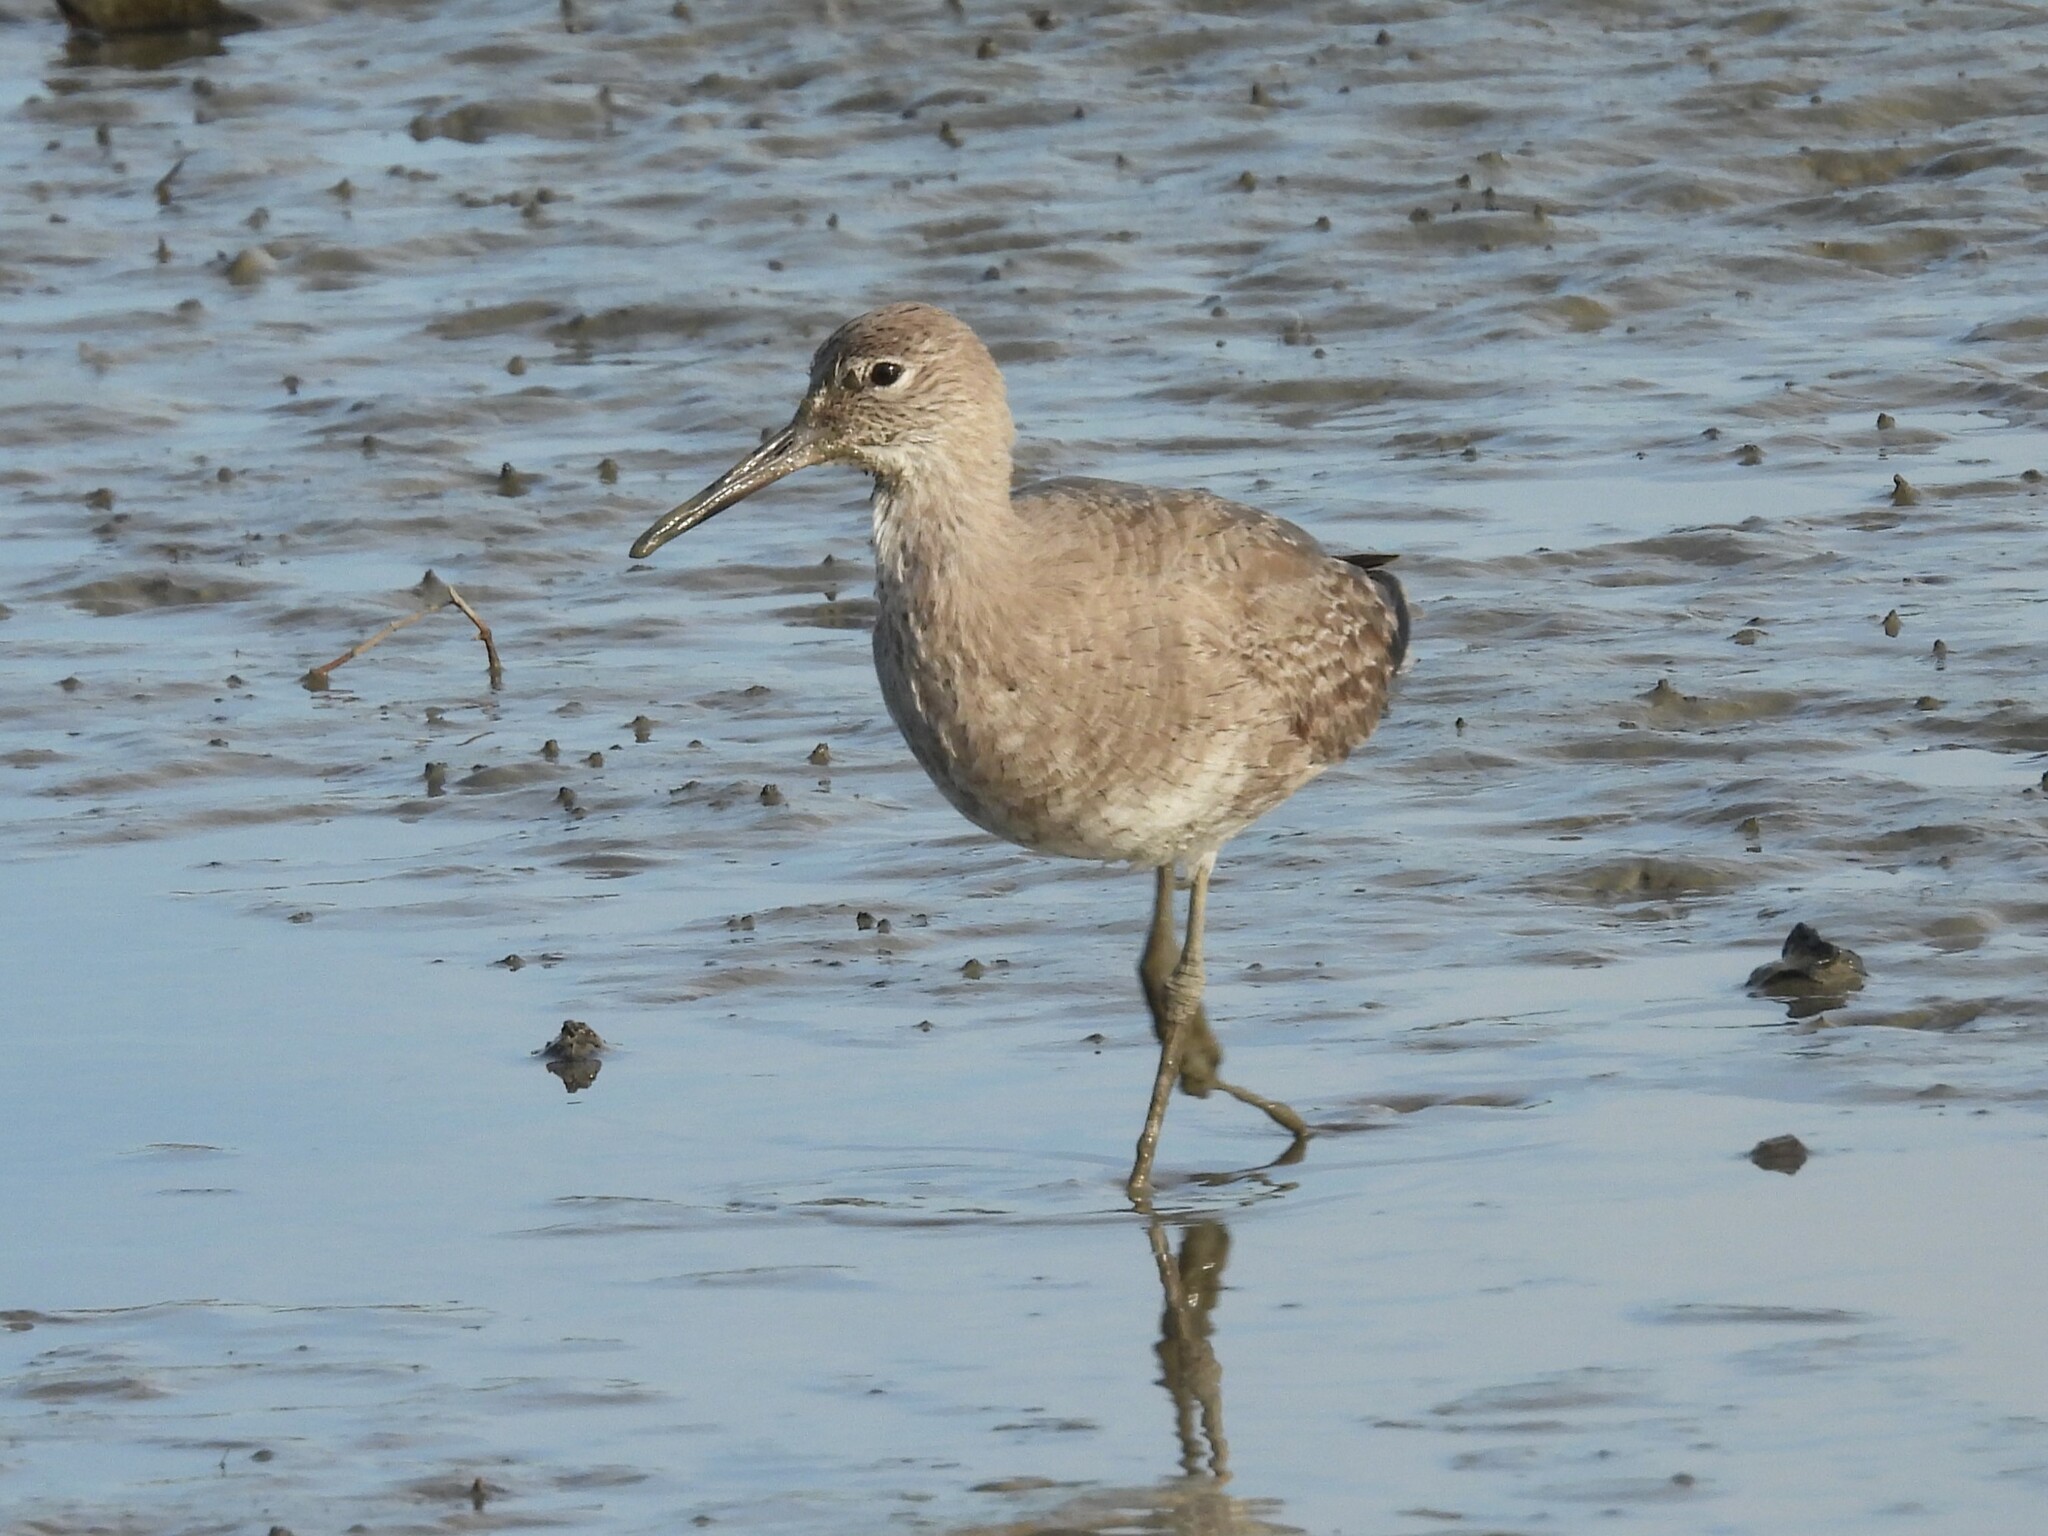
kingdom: Animalia
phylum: Chordata
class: Aves
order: Charadriiformes
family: Scolopacidae
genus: Tringa
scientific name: Tringa semipalmata
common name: Willet
